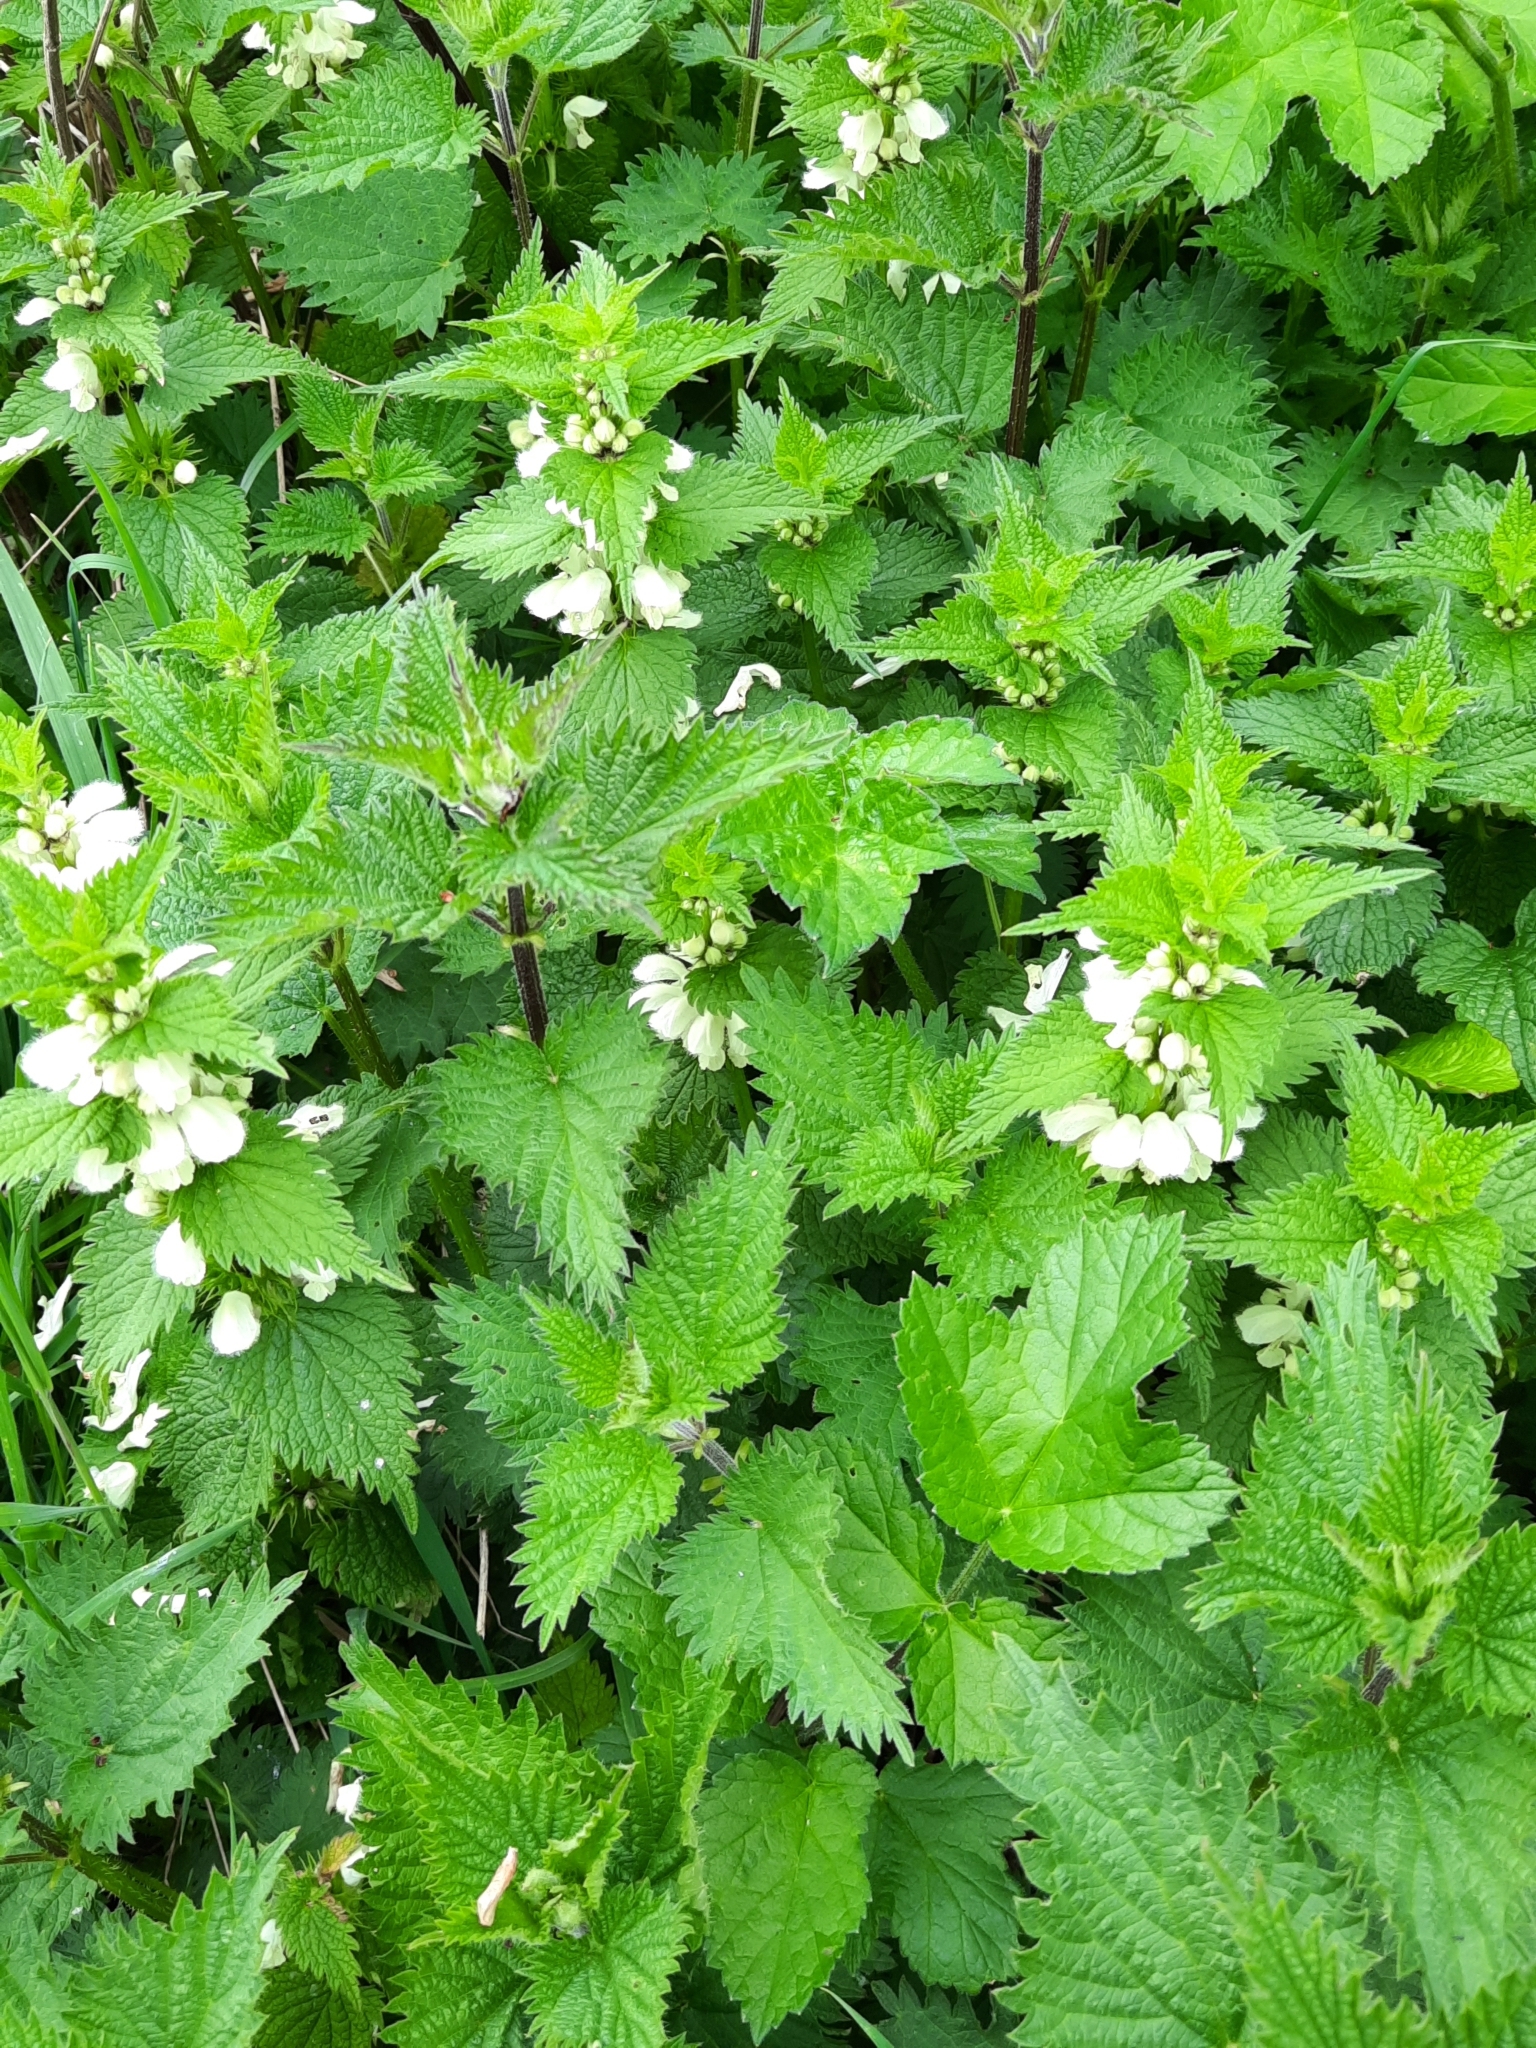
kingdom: Plantae
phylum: Tracheophyta
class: Magnoliopsida
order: Lamiales
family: Lamiaceae
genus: Lamium
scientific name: Lamium album
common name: White dead-nettle
